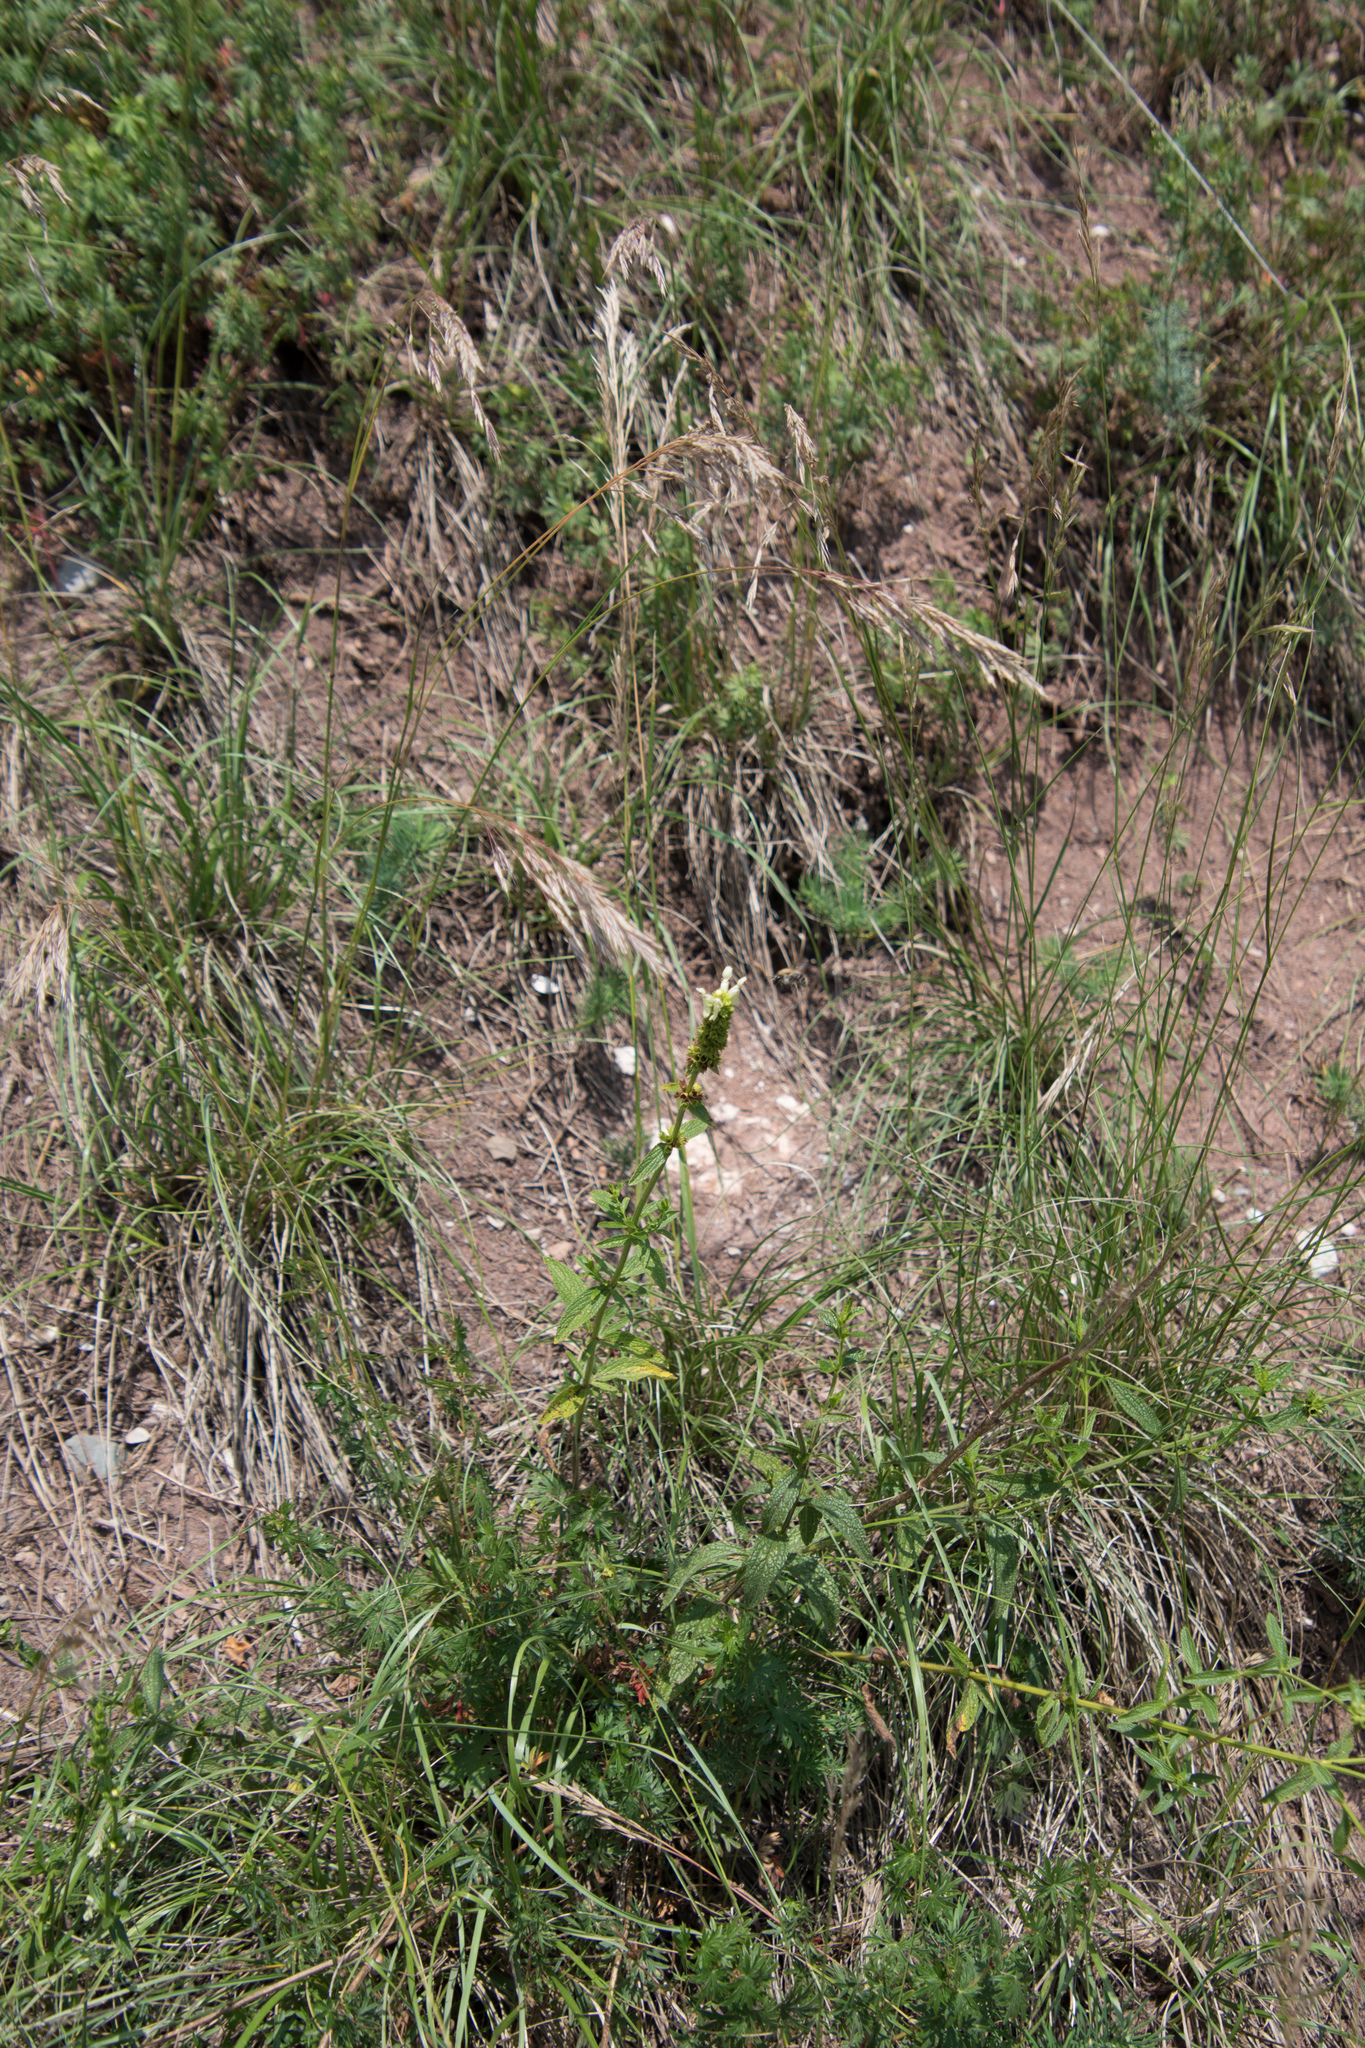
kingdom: Plantae
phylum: Tracheophyta
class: Magnoliopsida
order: Lamiales
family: Lamiaceae
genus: Stachys
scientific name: Stachys recta
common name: Perennial yellow-woundwort
